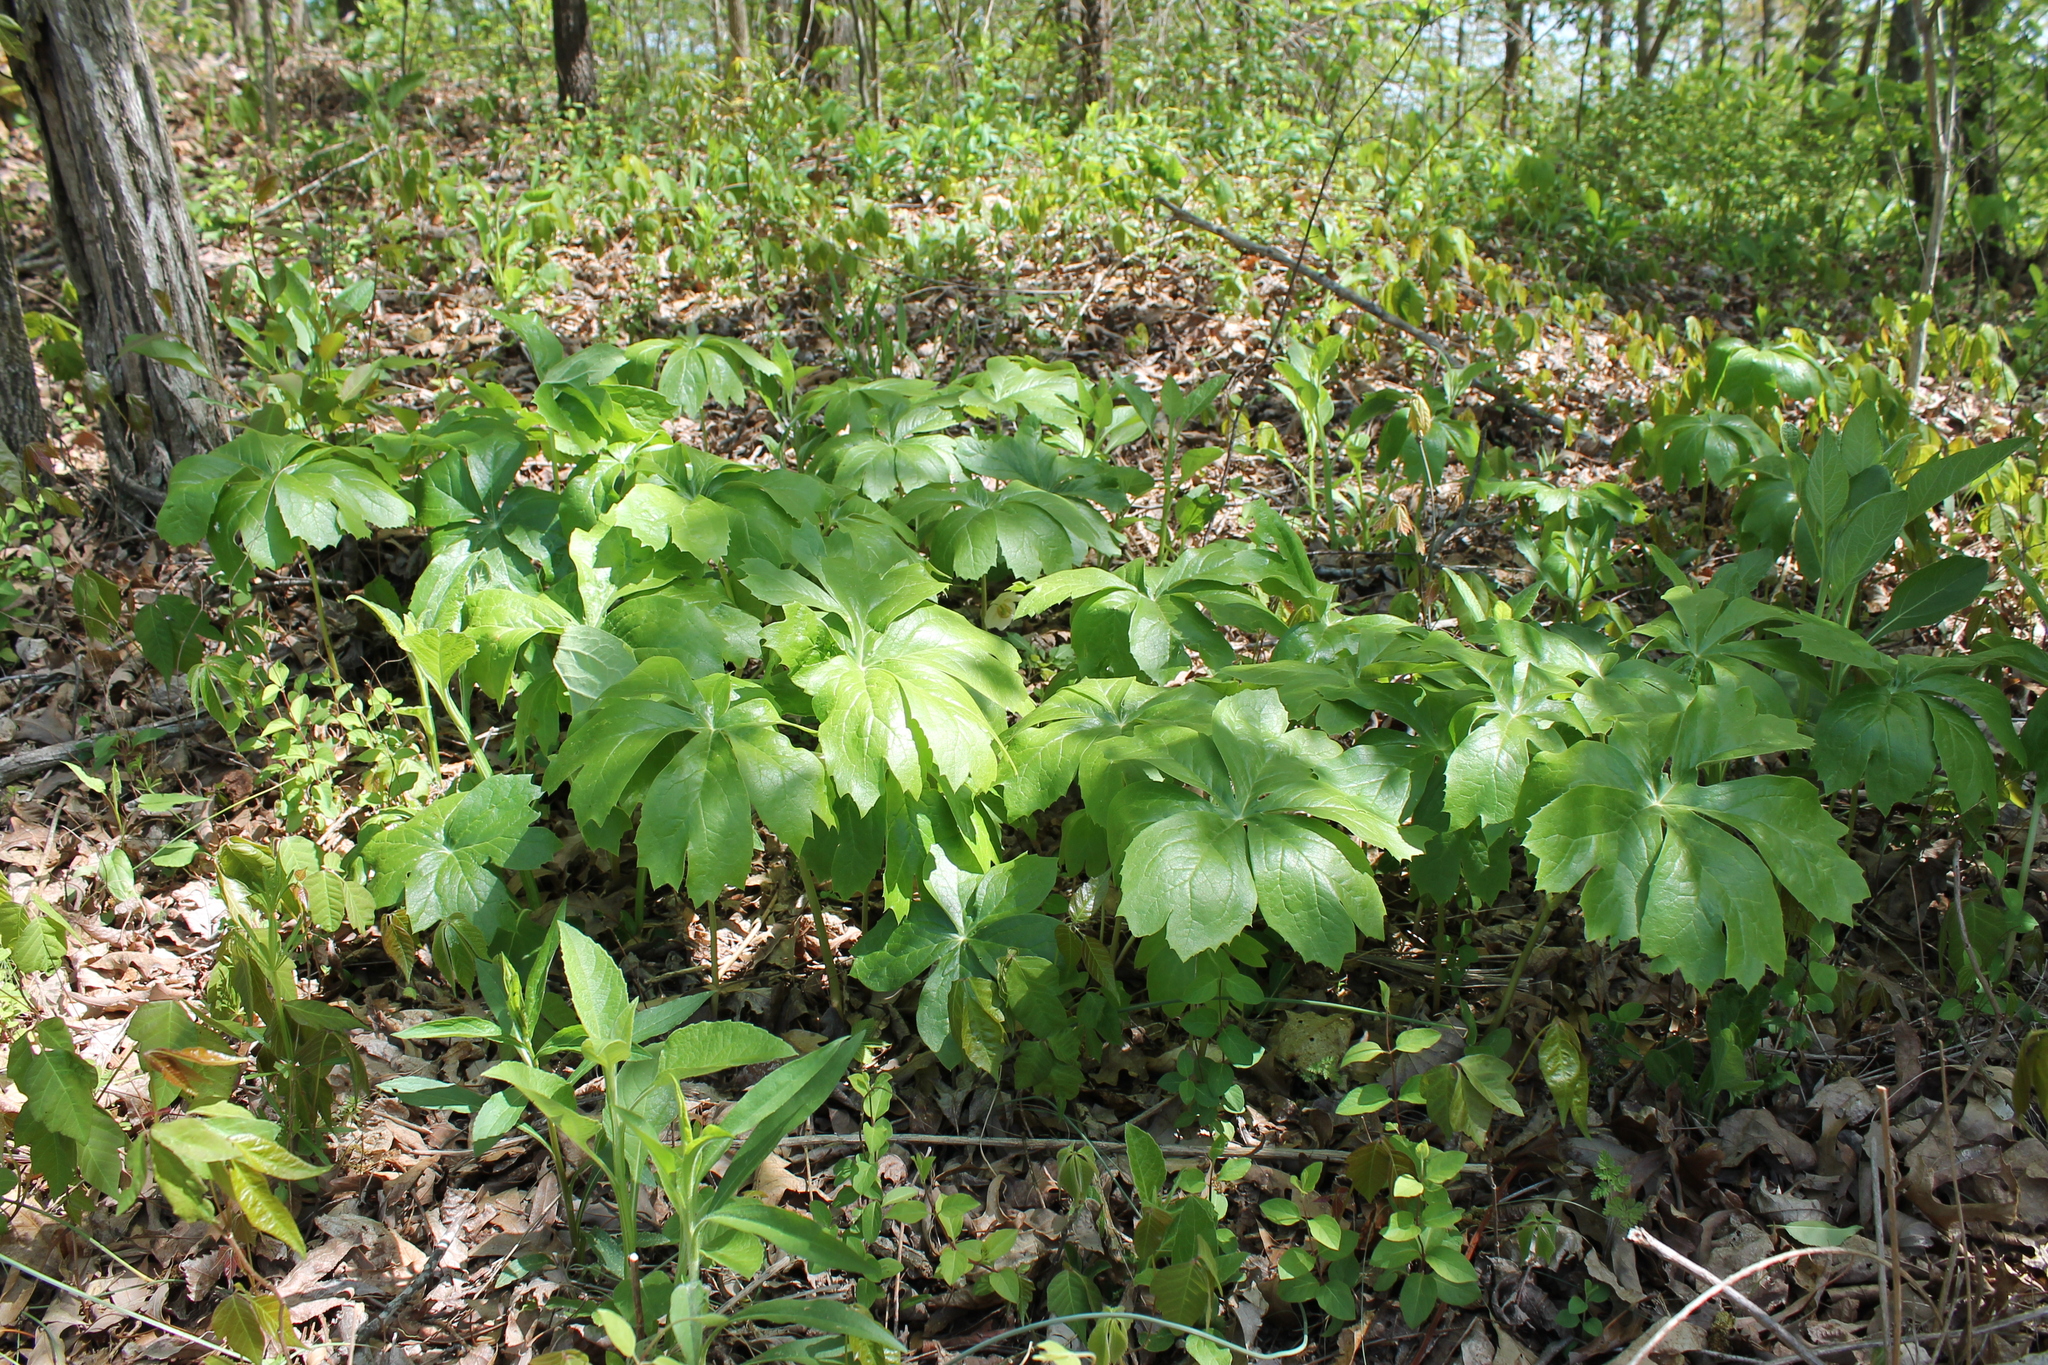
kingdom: Plantae
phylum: Tracheophyta
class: Magnoliopsida
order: Ranunculales
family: Berberidaceae
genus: Podophyllum
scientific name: Podophyllum peltatum
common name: Wild mandrake
